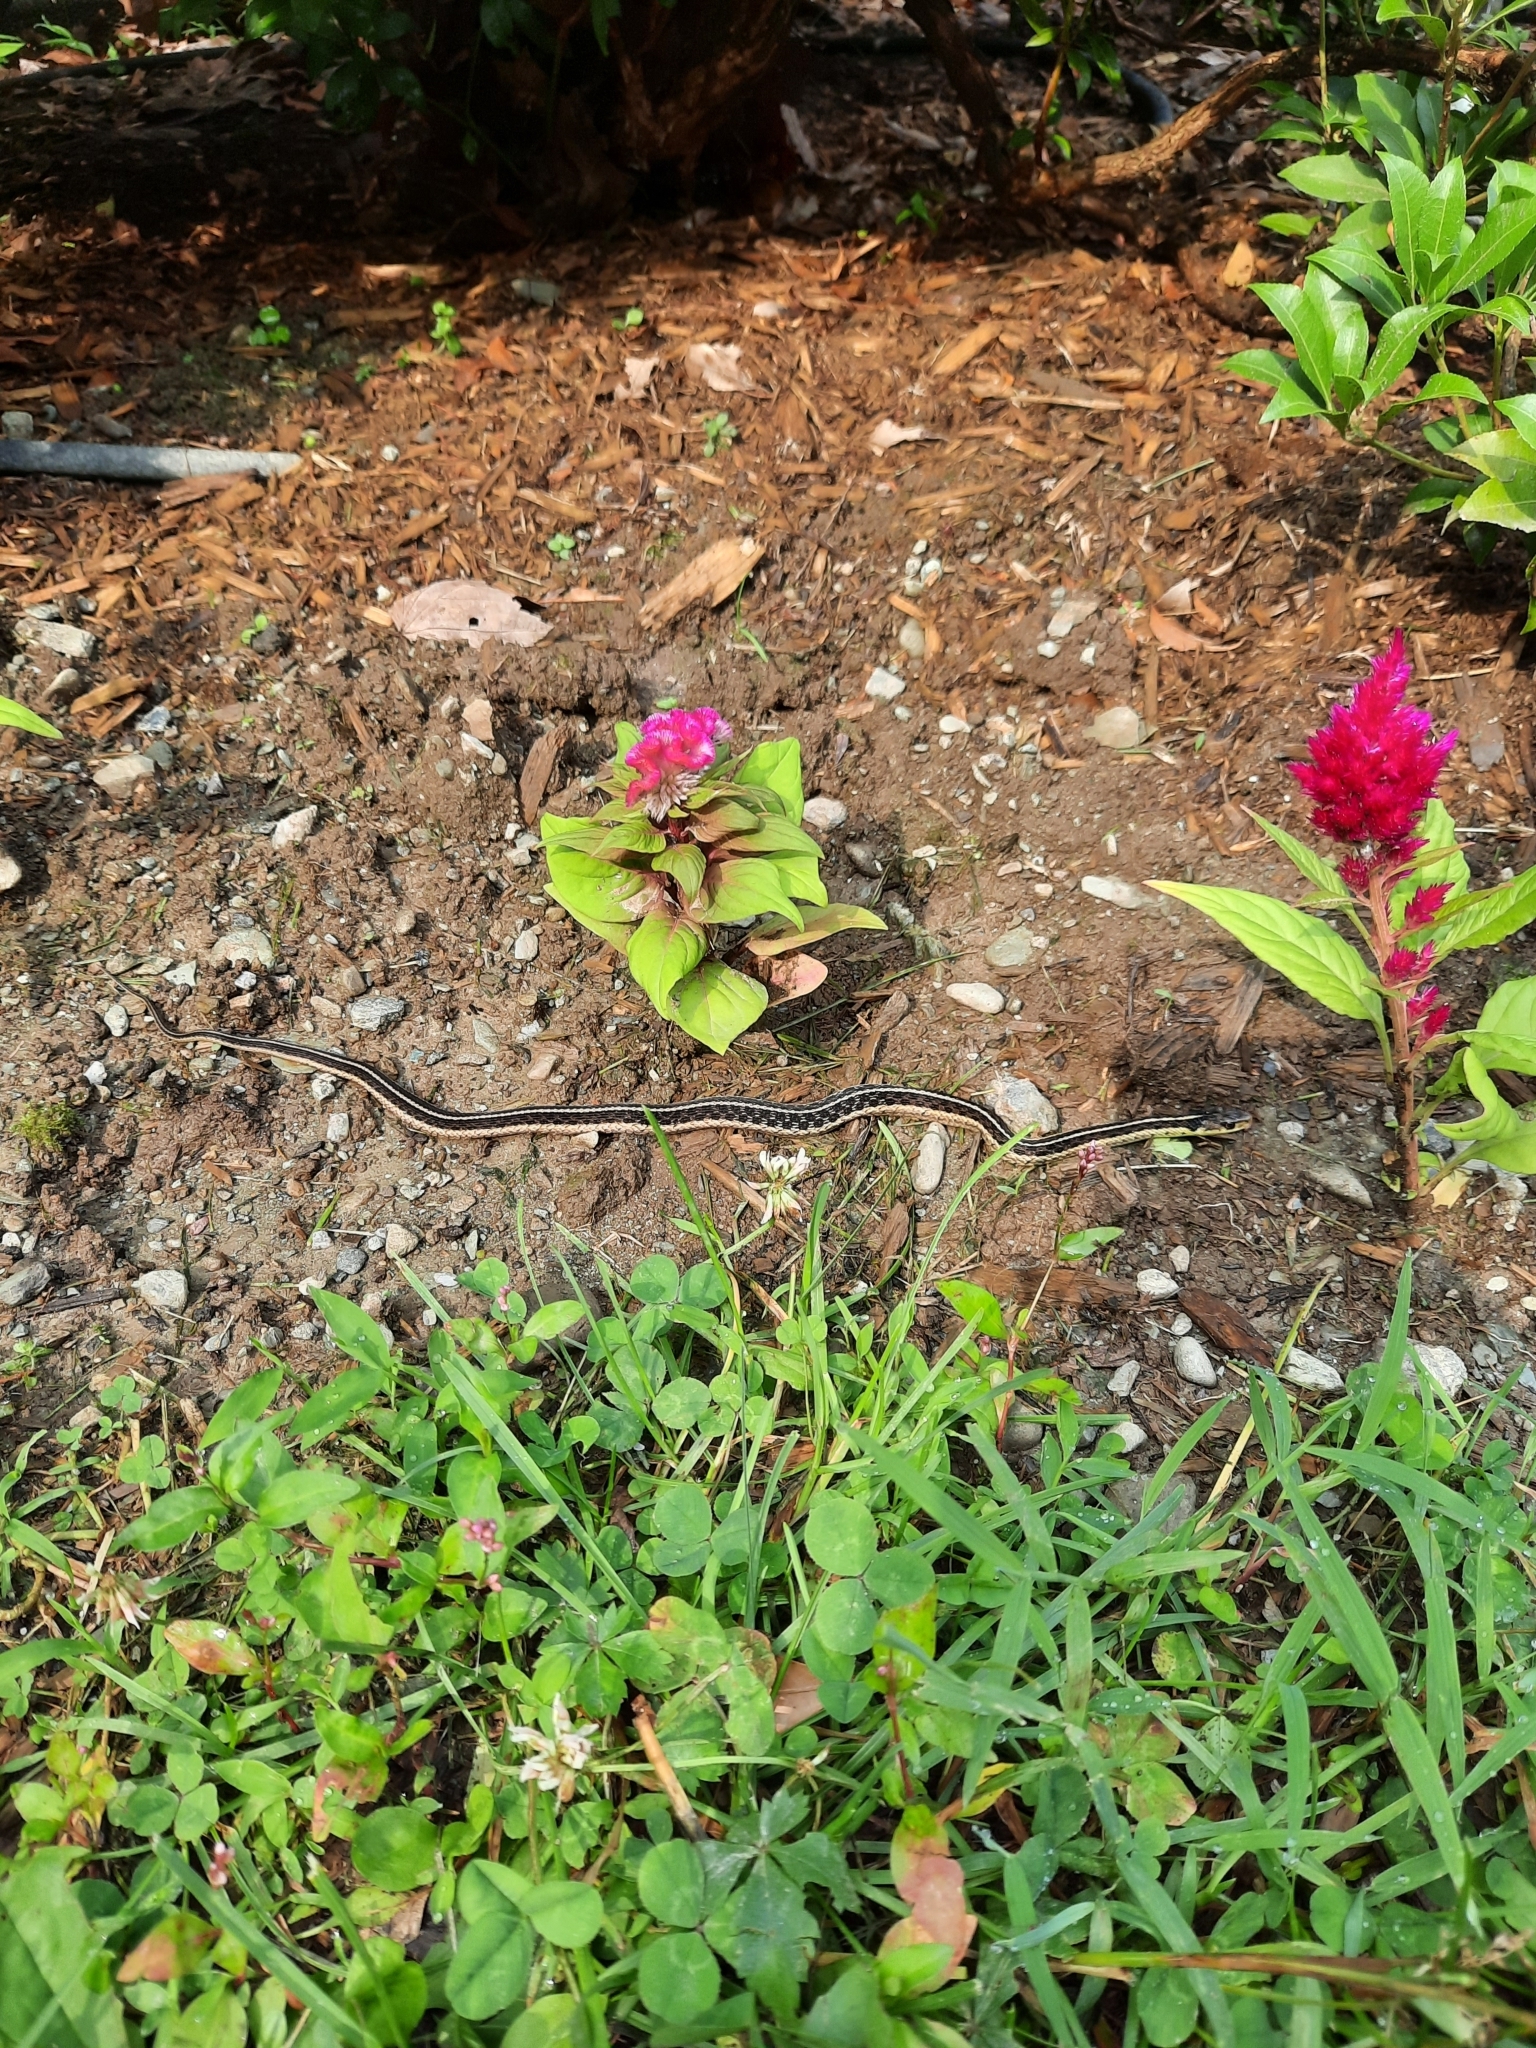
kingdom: Animalia
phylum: Chordata
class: Squamata
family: Colubridae
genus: Thamnophis
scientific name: Thamnophis sirtalis
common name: Common garter snake
